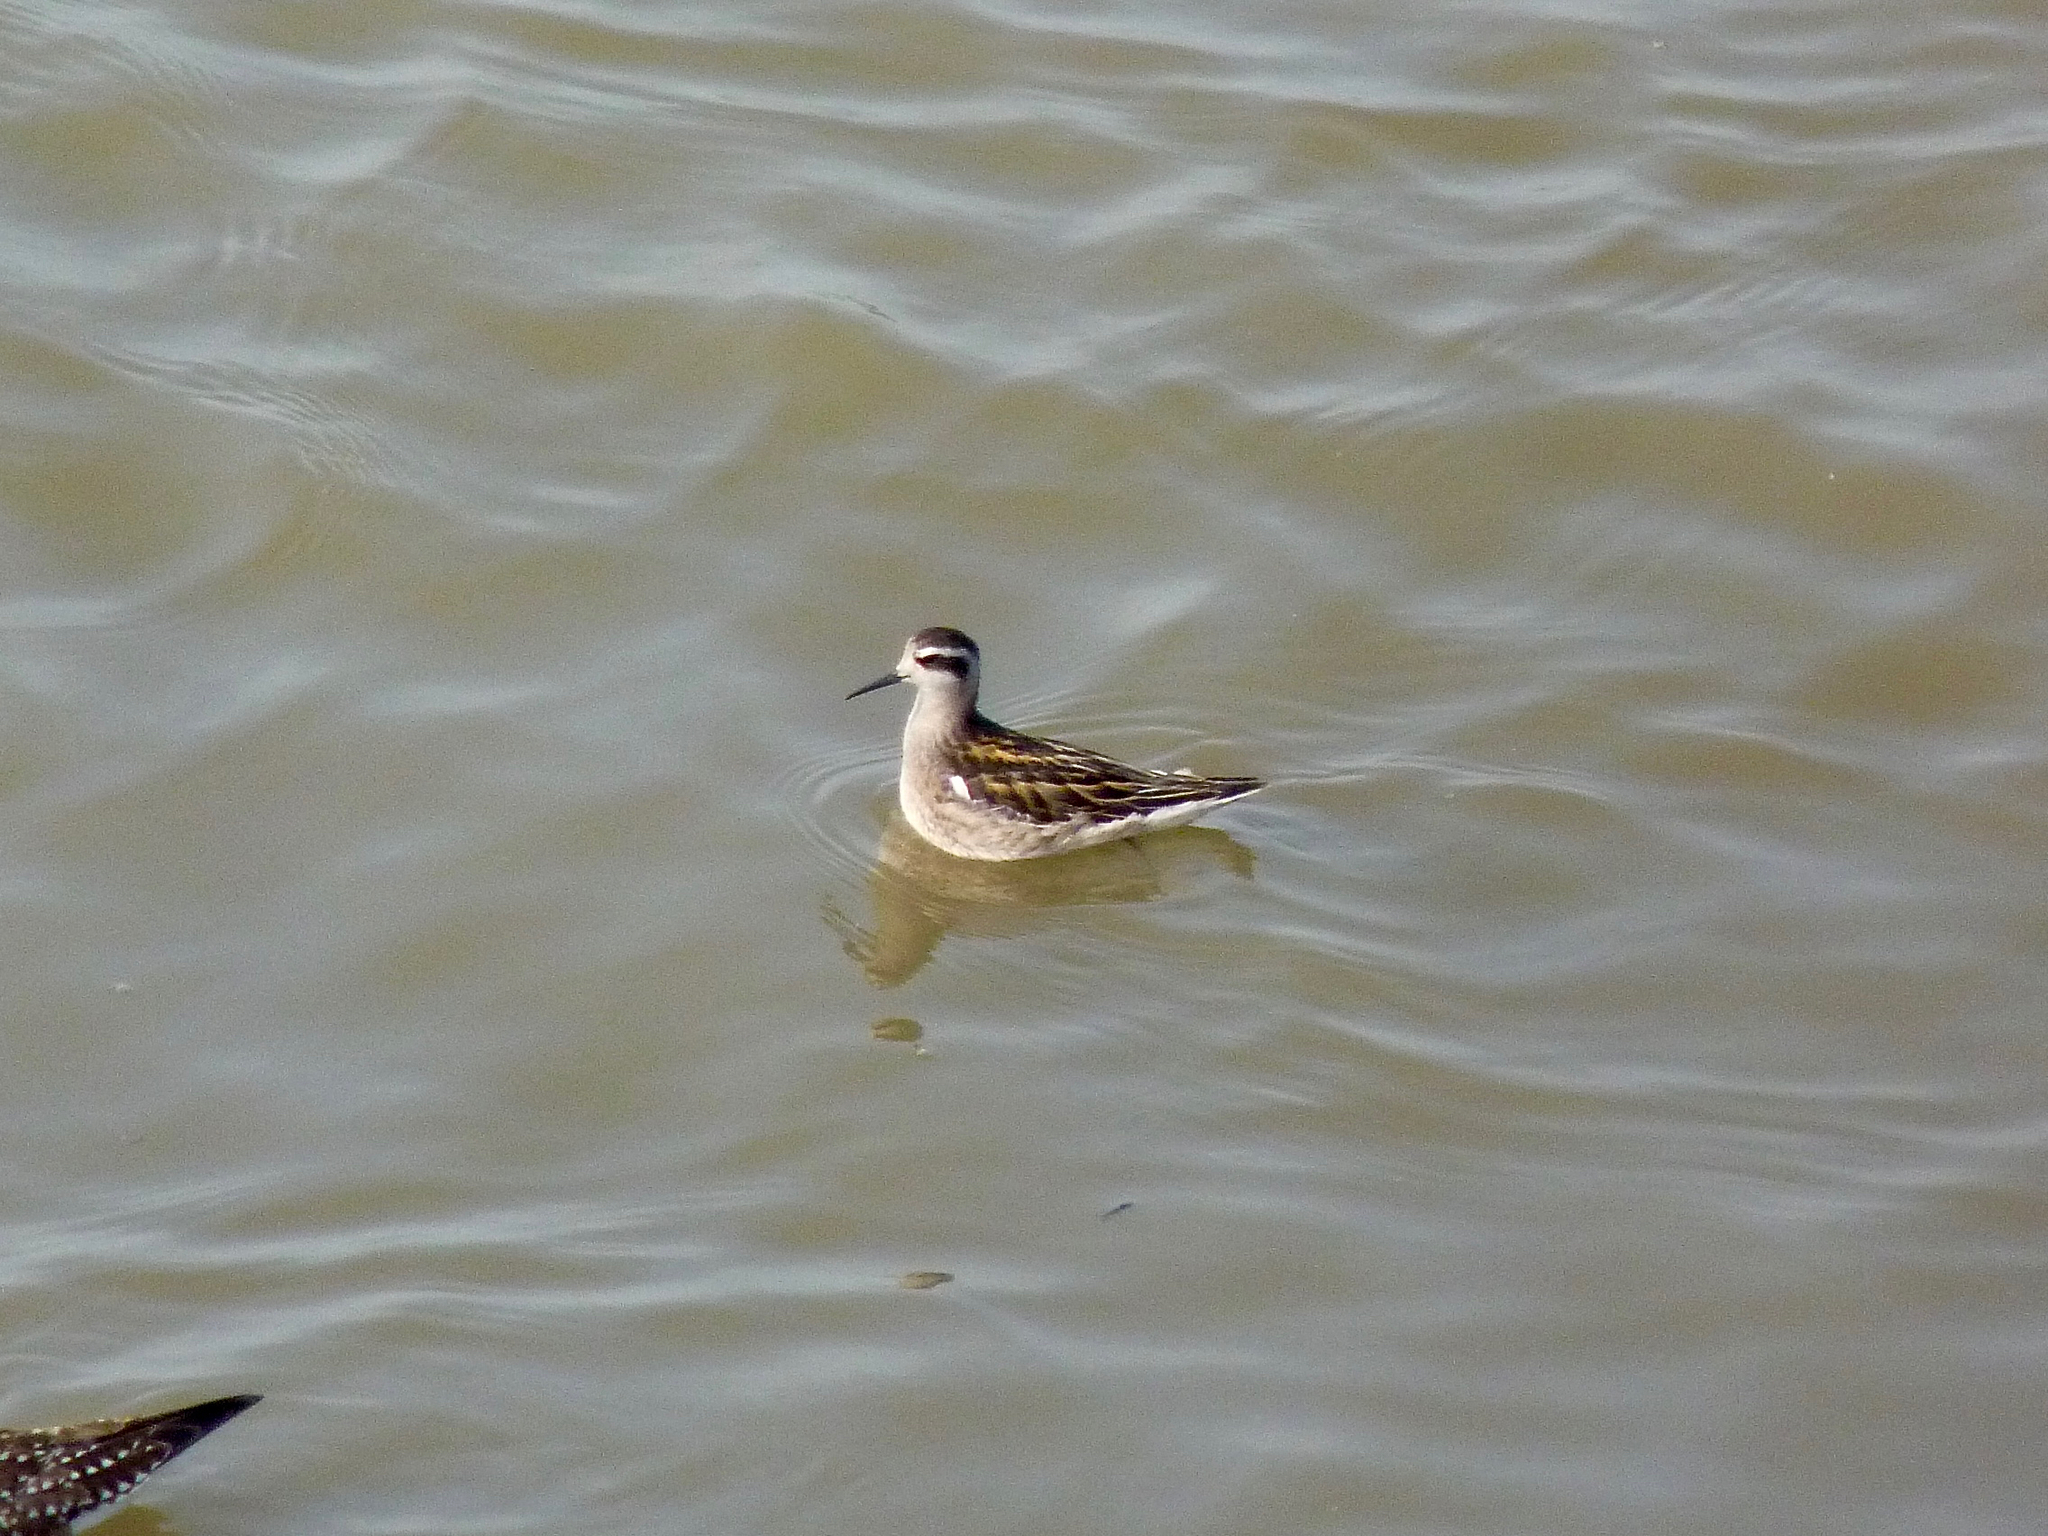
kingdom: Animalia
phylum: Chordata
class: Aves
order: Charadriiformes
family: Scolopacidae
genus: Phalaropus
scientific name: Phalaropus lobatus
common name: Red-necked phalarope
